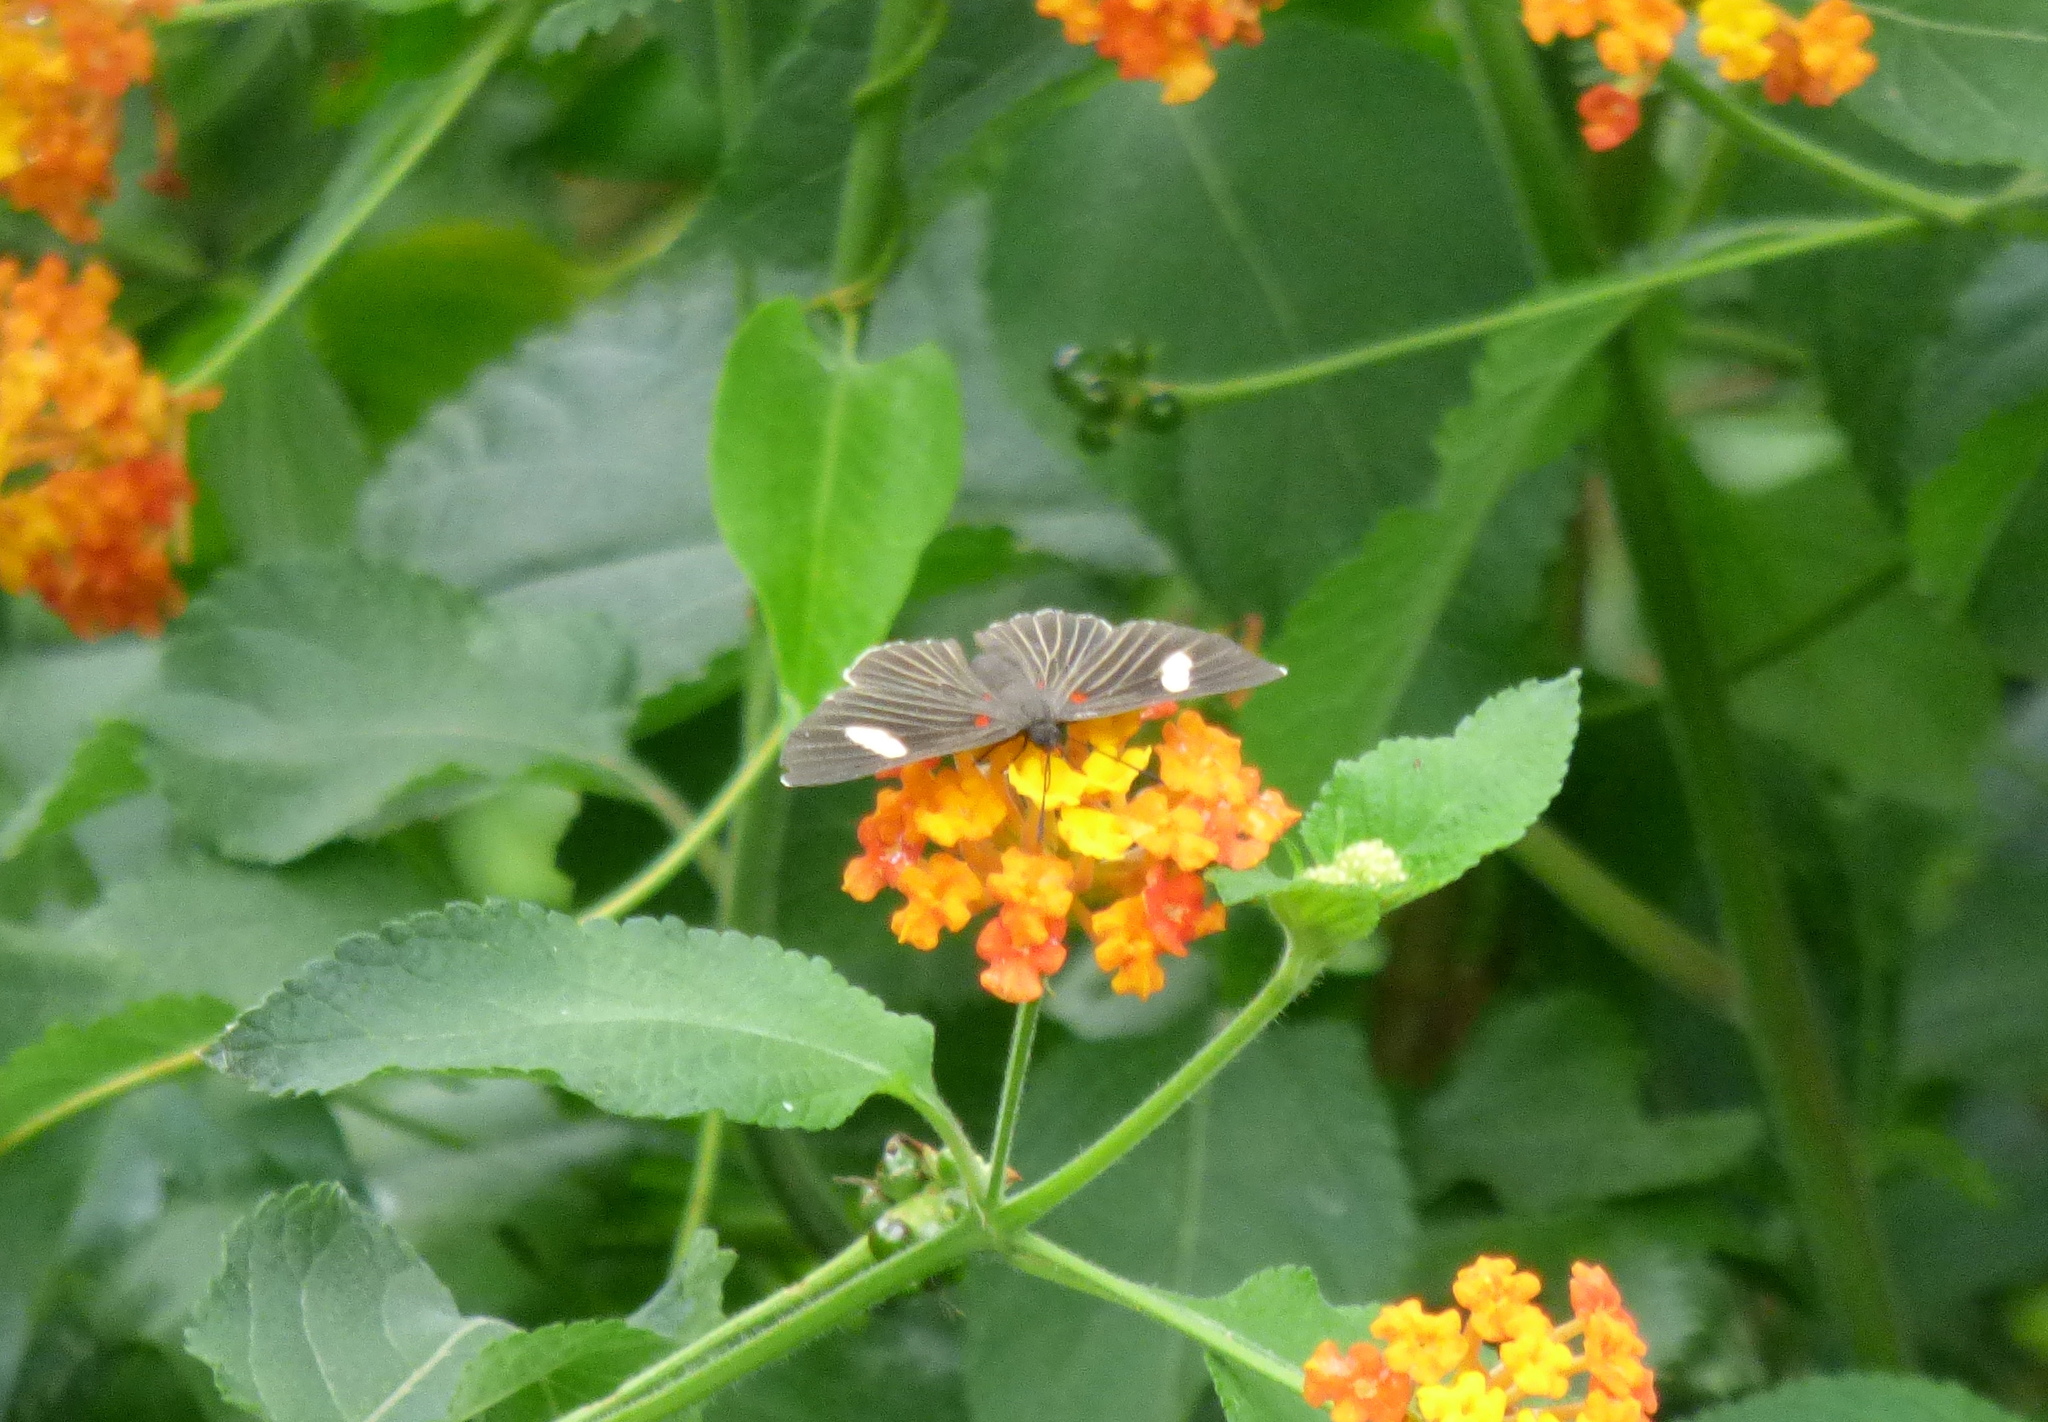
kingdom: Animalia
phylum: Arthropoda
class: Insecta
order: Lepidoptera
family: Lycaenidae
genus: Melanis
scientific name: Melanis aegates
